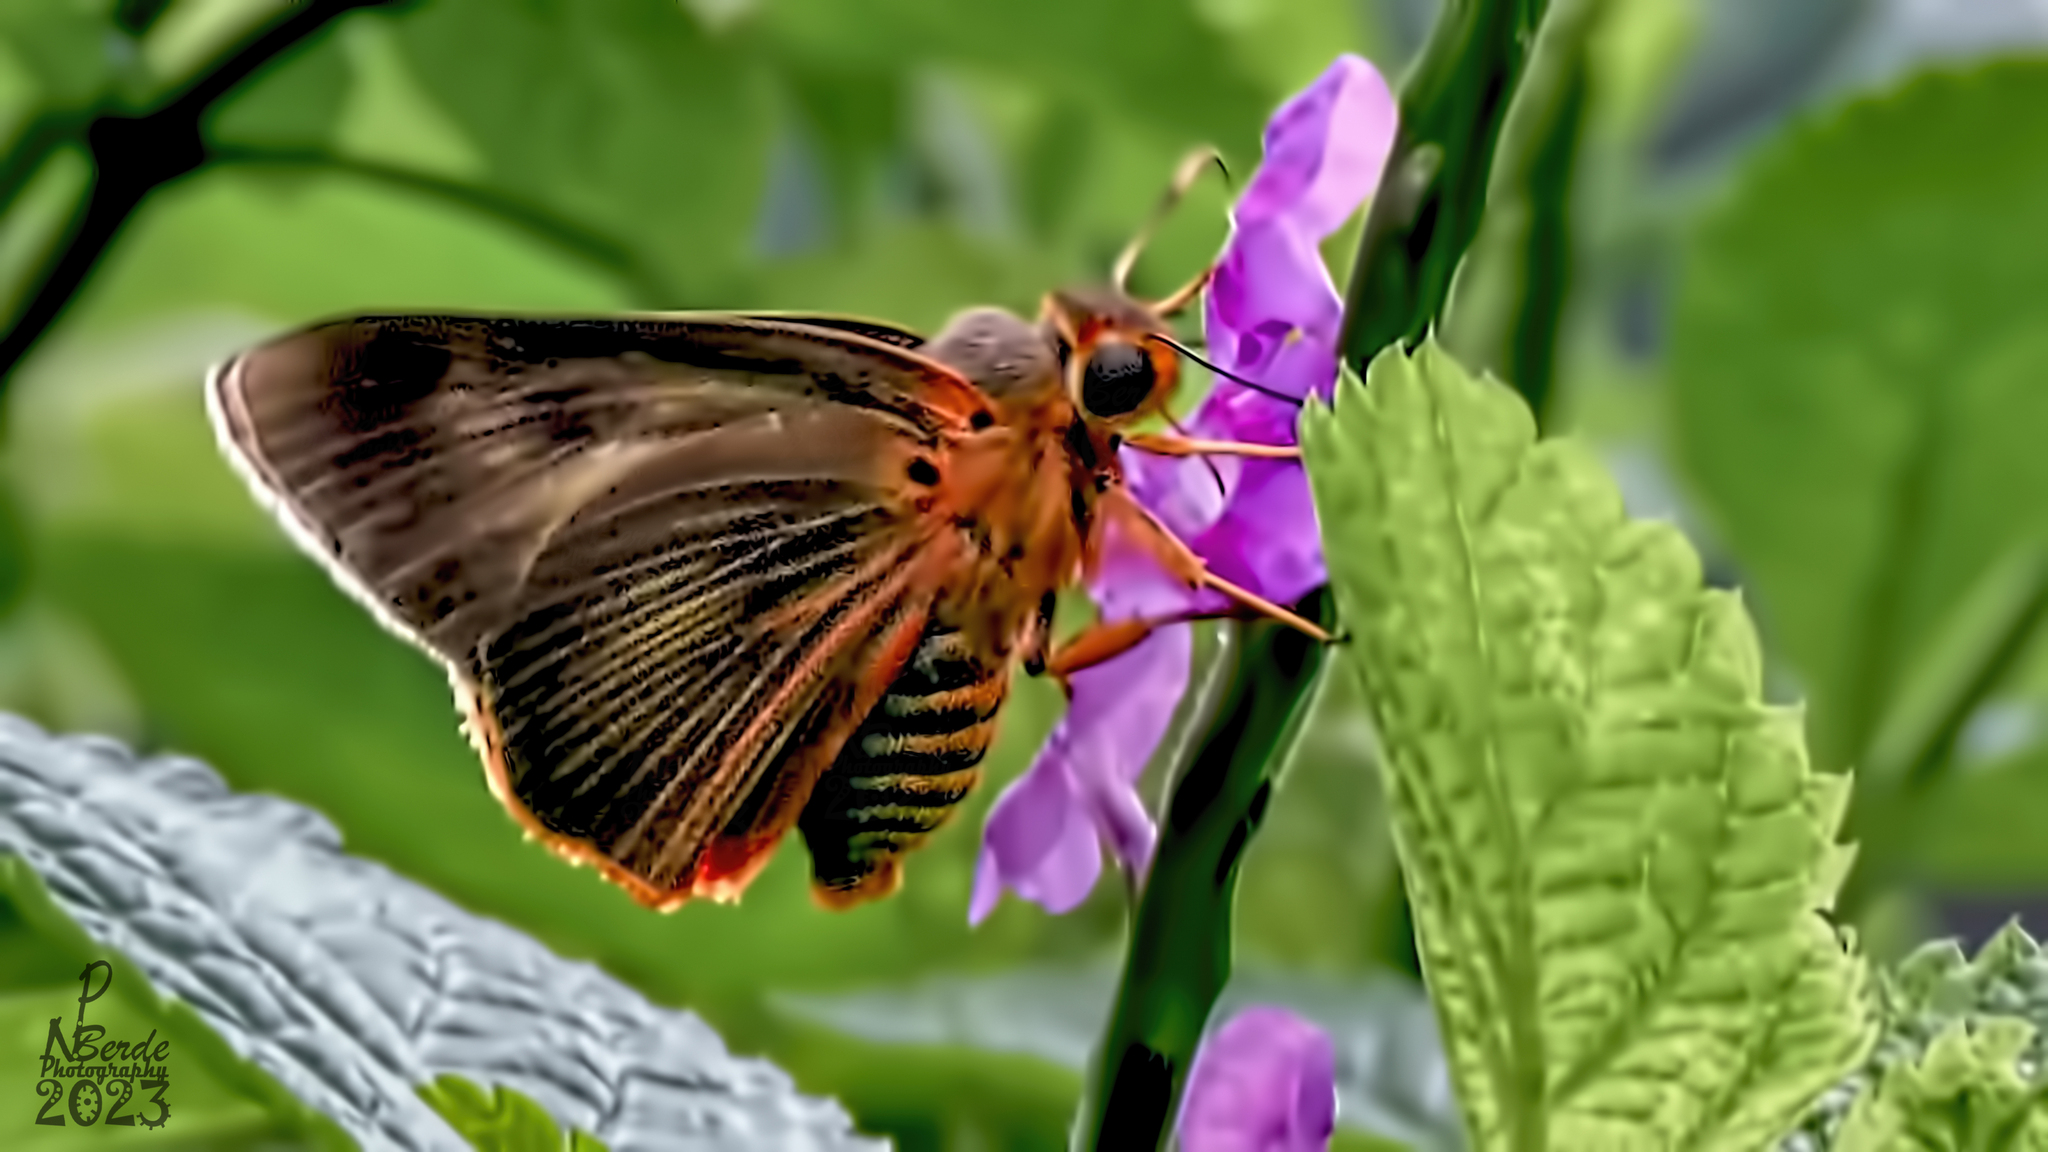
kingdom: Animalia
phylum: Arthropoda
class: Insecta
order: Lepidoptera
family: Hesperiidae
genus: Bibasis
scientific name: Bibasis jaina
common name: Common orange awlet
